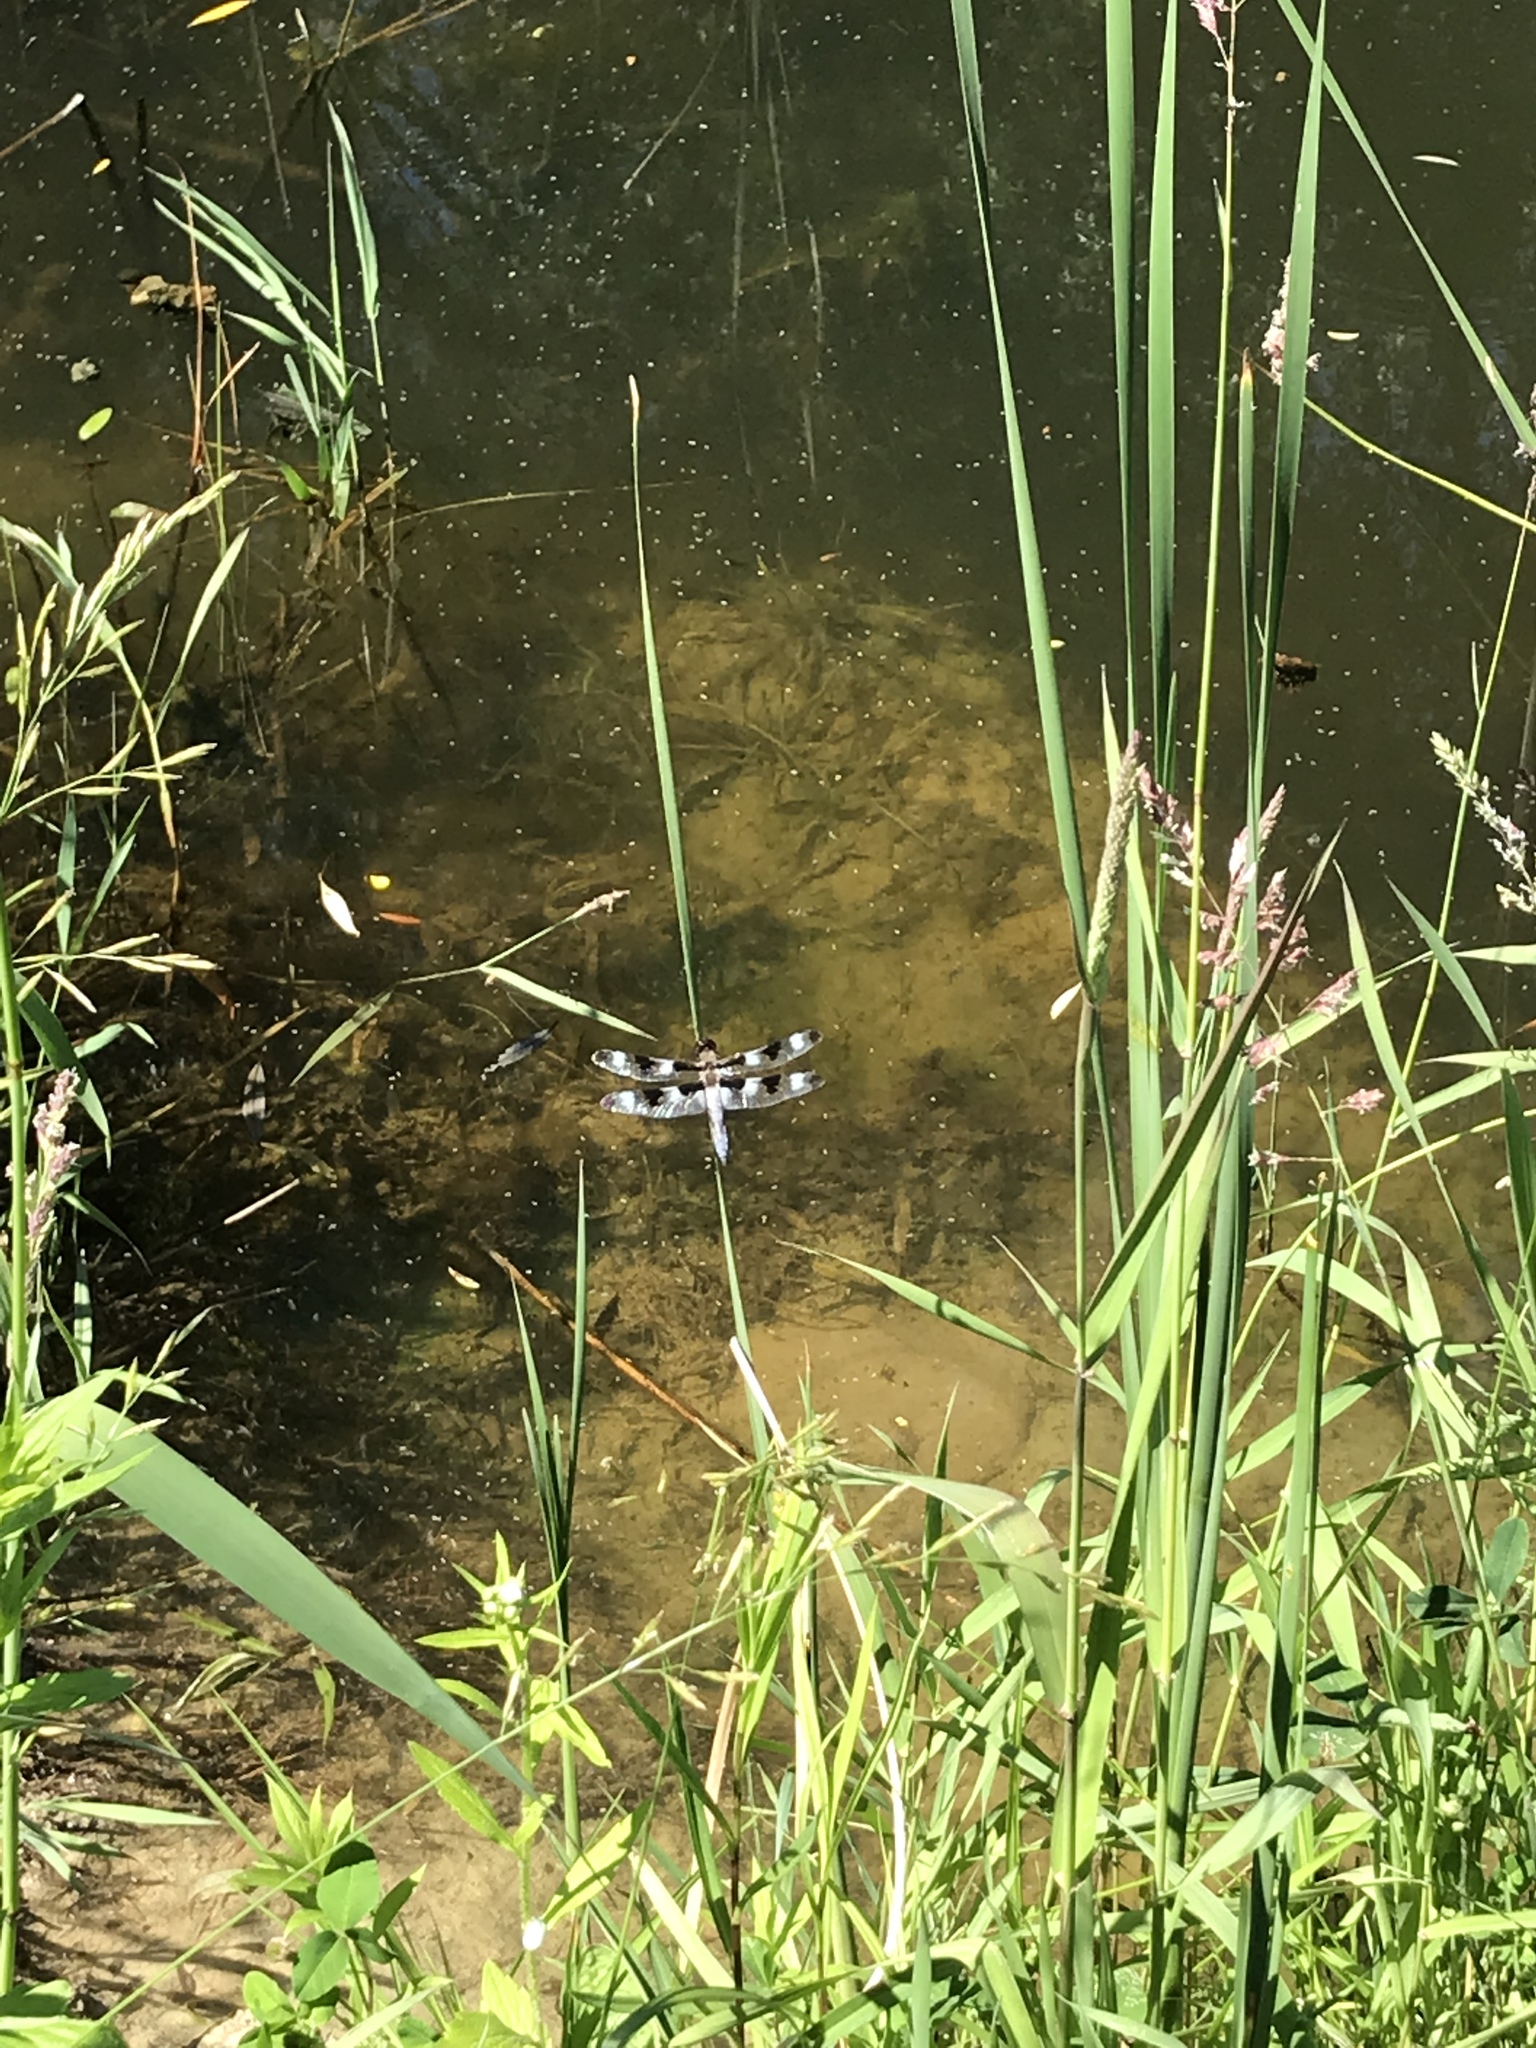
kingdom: Animalia
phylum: Arthropoda
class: Insecta
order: Odonata
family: Libellulidae
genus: Libellula
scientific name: Libellula pulchella
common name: Twelve-spotted skimmer
